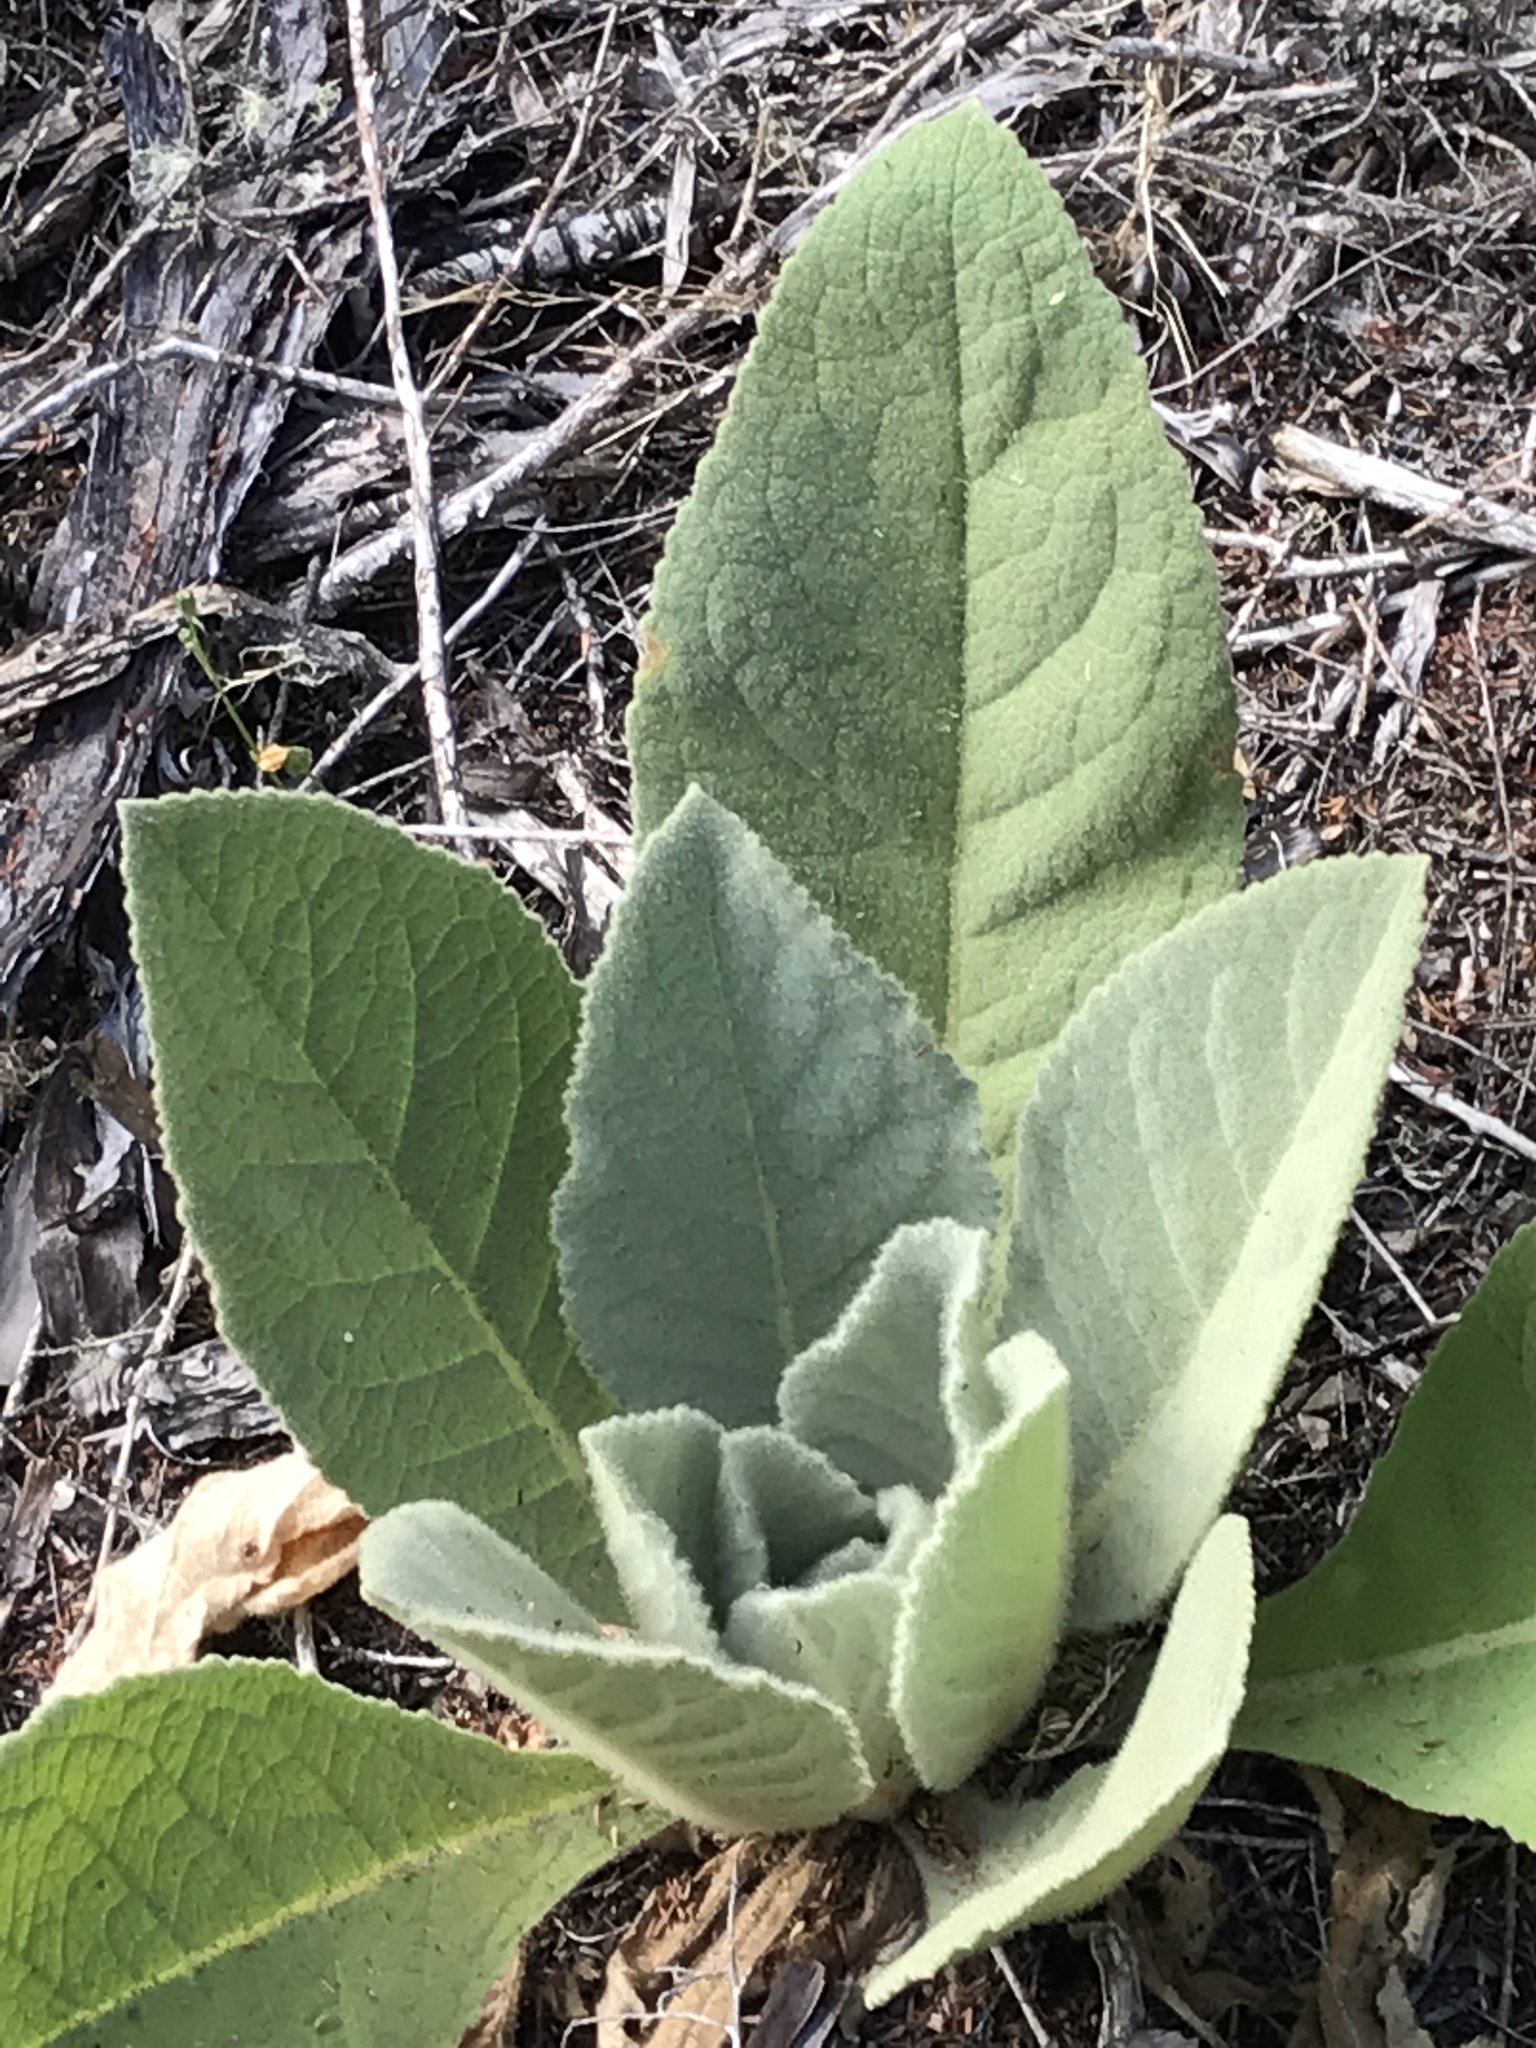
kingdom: Plantae
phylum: Tracheophyta
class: Magnoliopsida
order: Lamiales
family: Scrophulariaceae
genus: Verbascum
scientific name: Verbascum thapsus
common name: Common mullein
